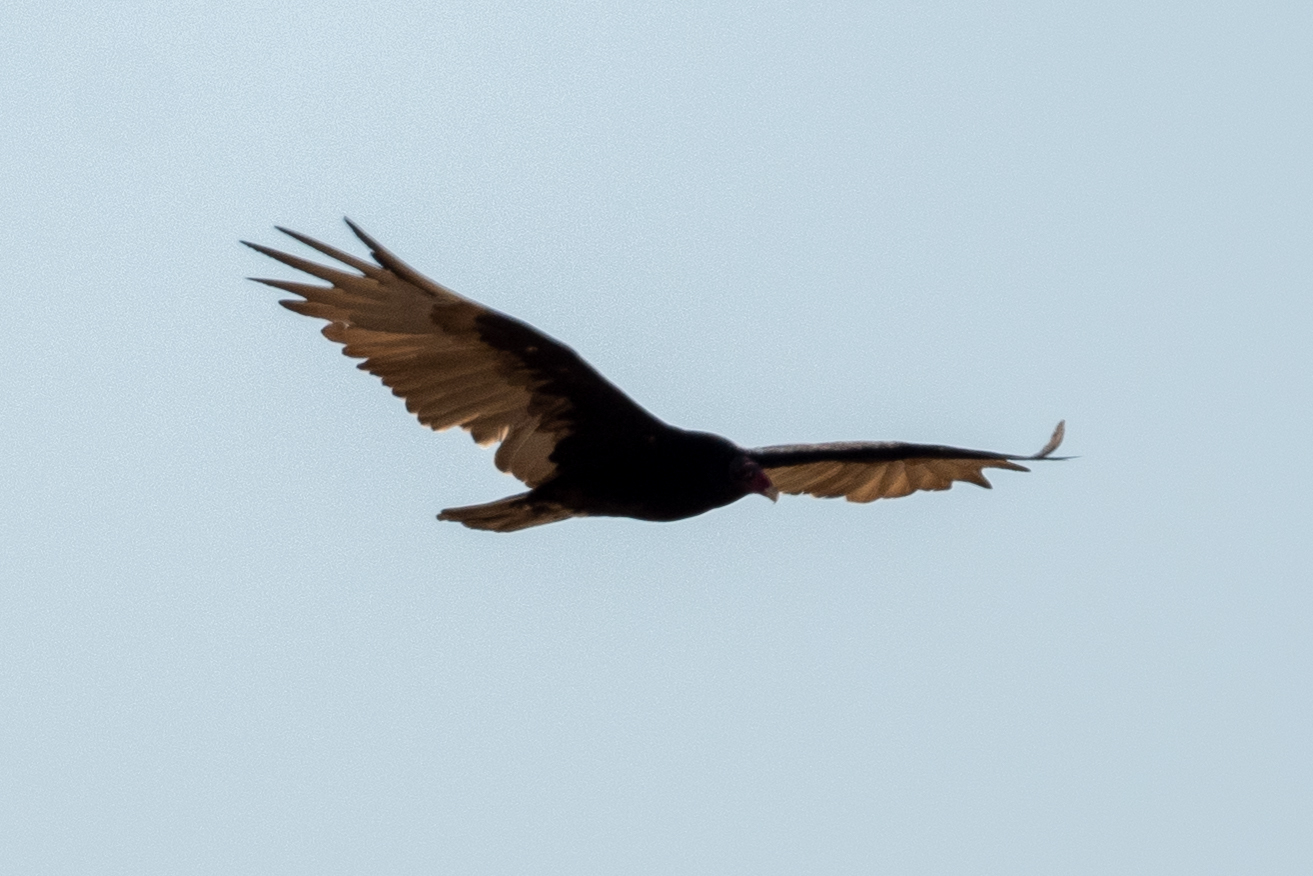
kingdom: Animalia
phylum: Chordata
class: Aves
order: Accipitriformes
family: Cathartidae
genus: Cathartes
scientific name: Cathartes aura
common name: Turkey vulture
